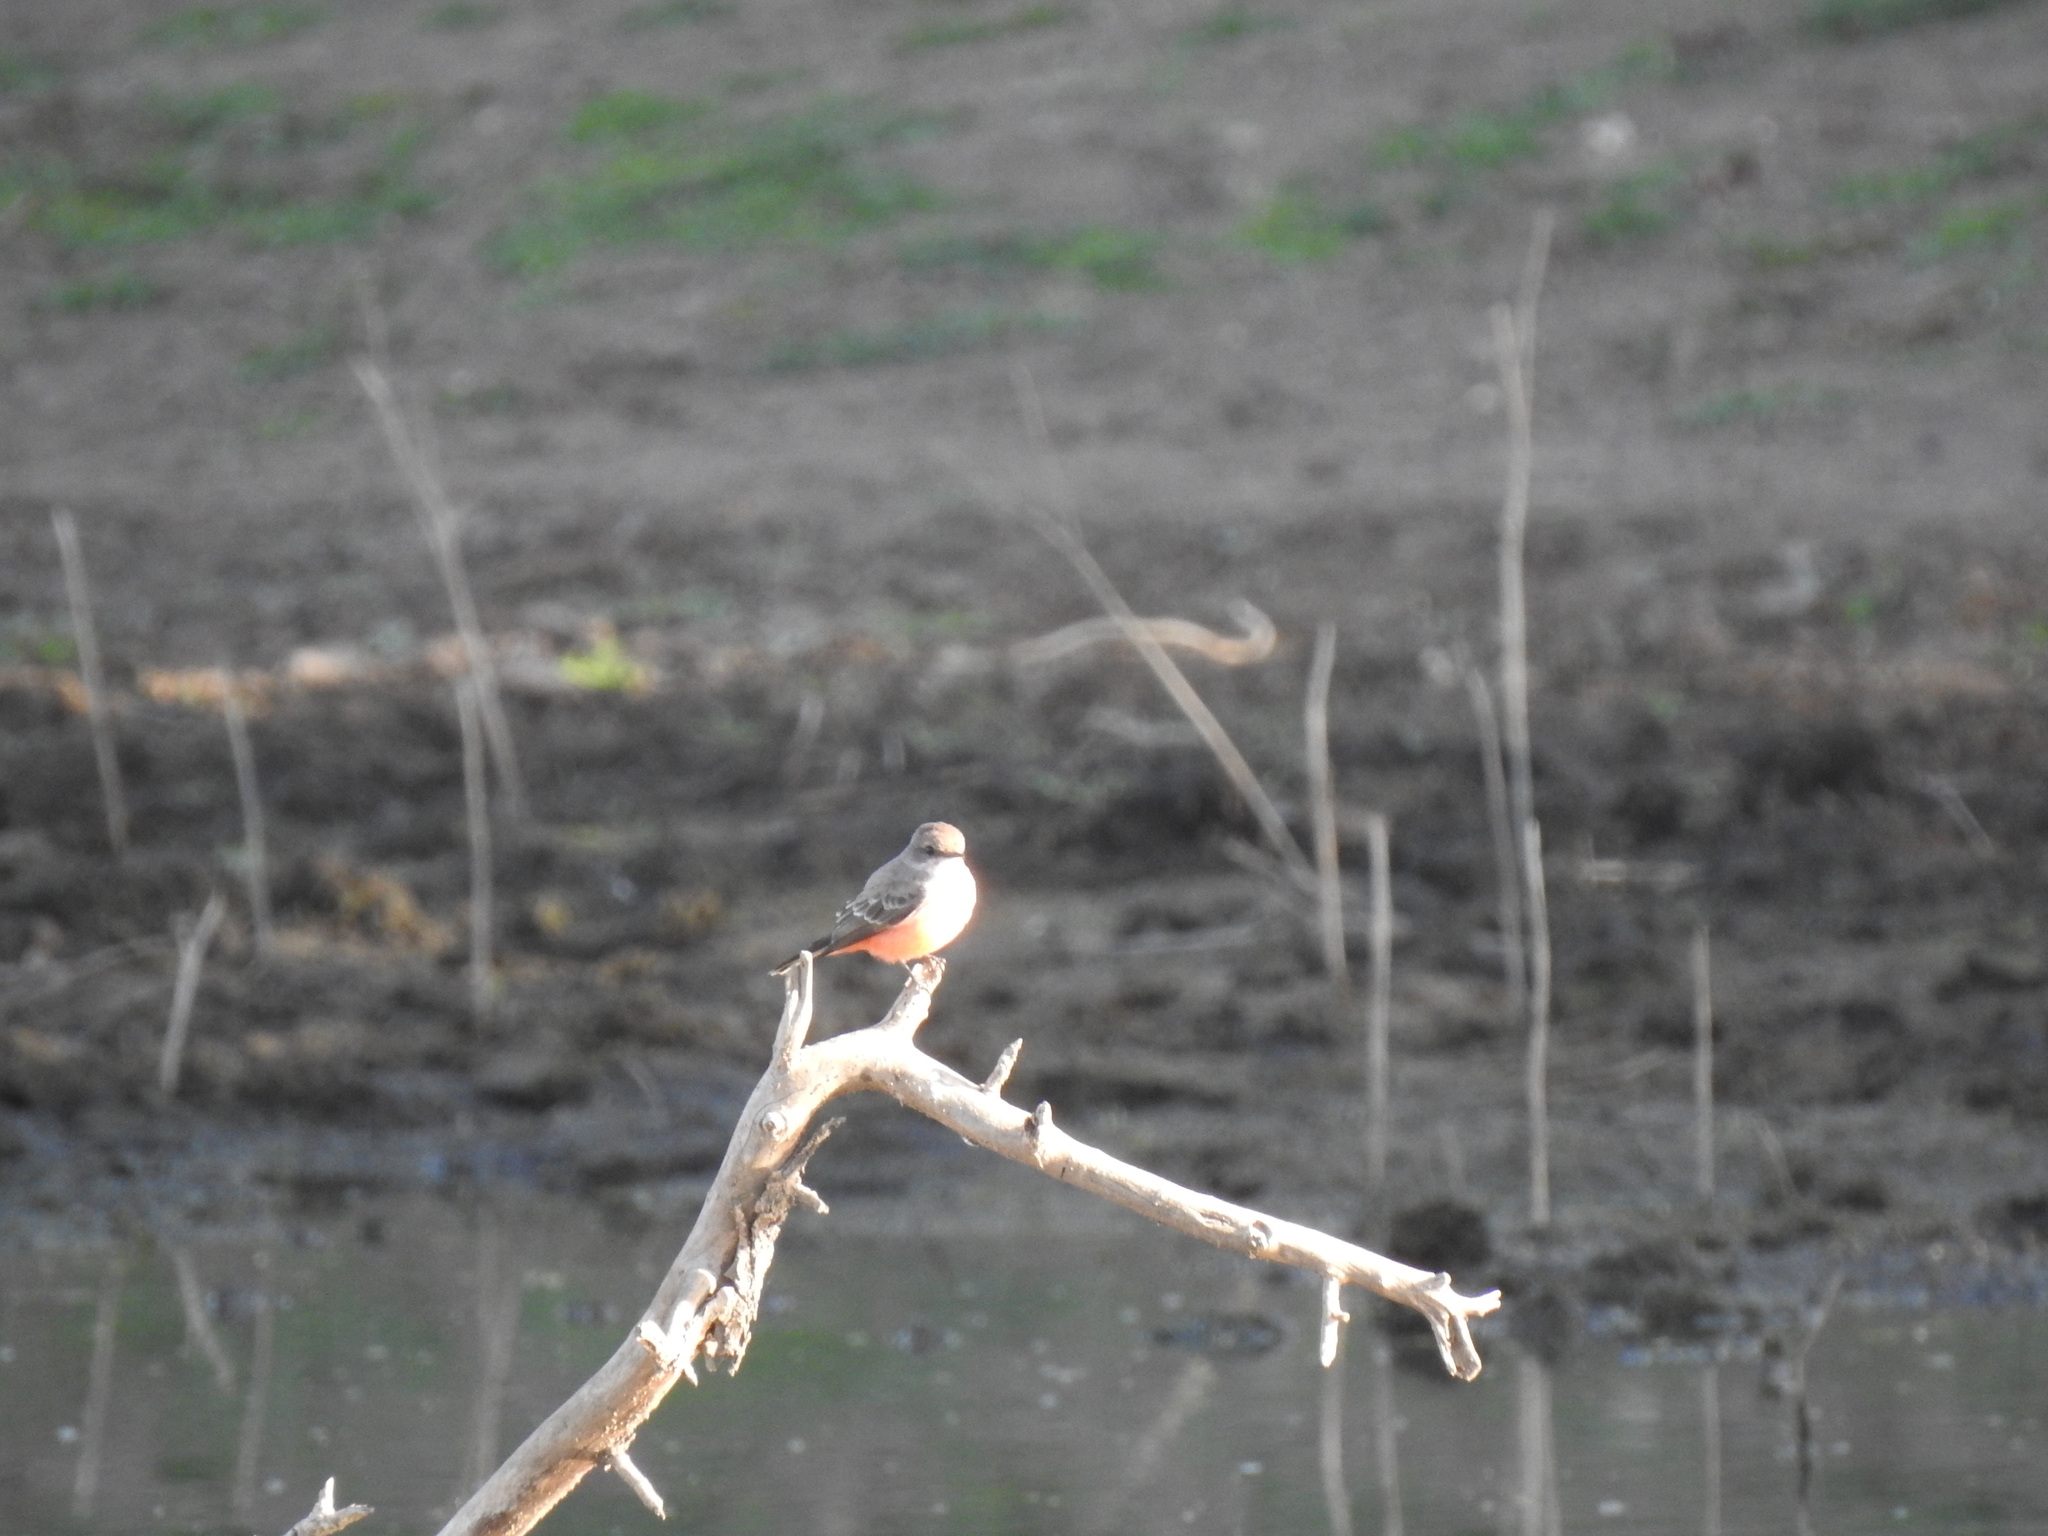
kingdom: Animalia
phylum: Chordata
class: Aves
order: Passeriformes
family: Tyrannidae
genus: Pyrocephalus
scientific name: Pyrocephalus rubinus
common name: Vermilion flycatcher
